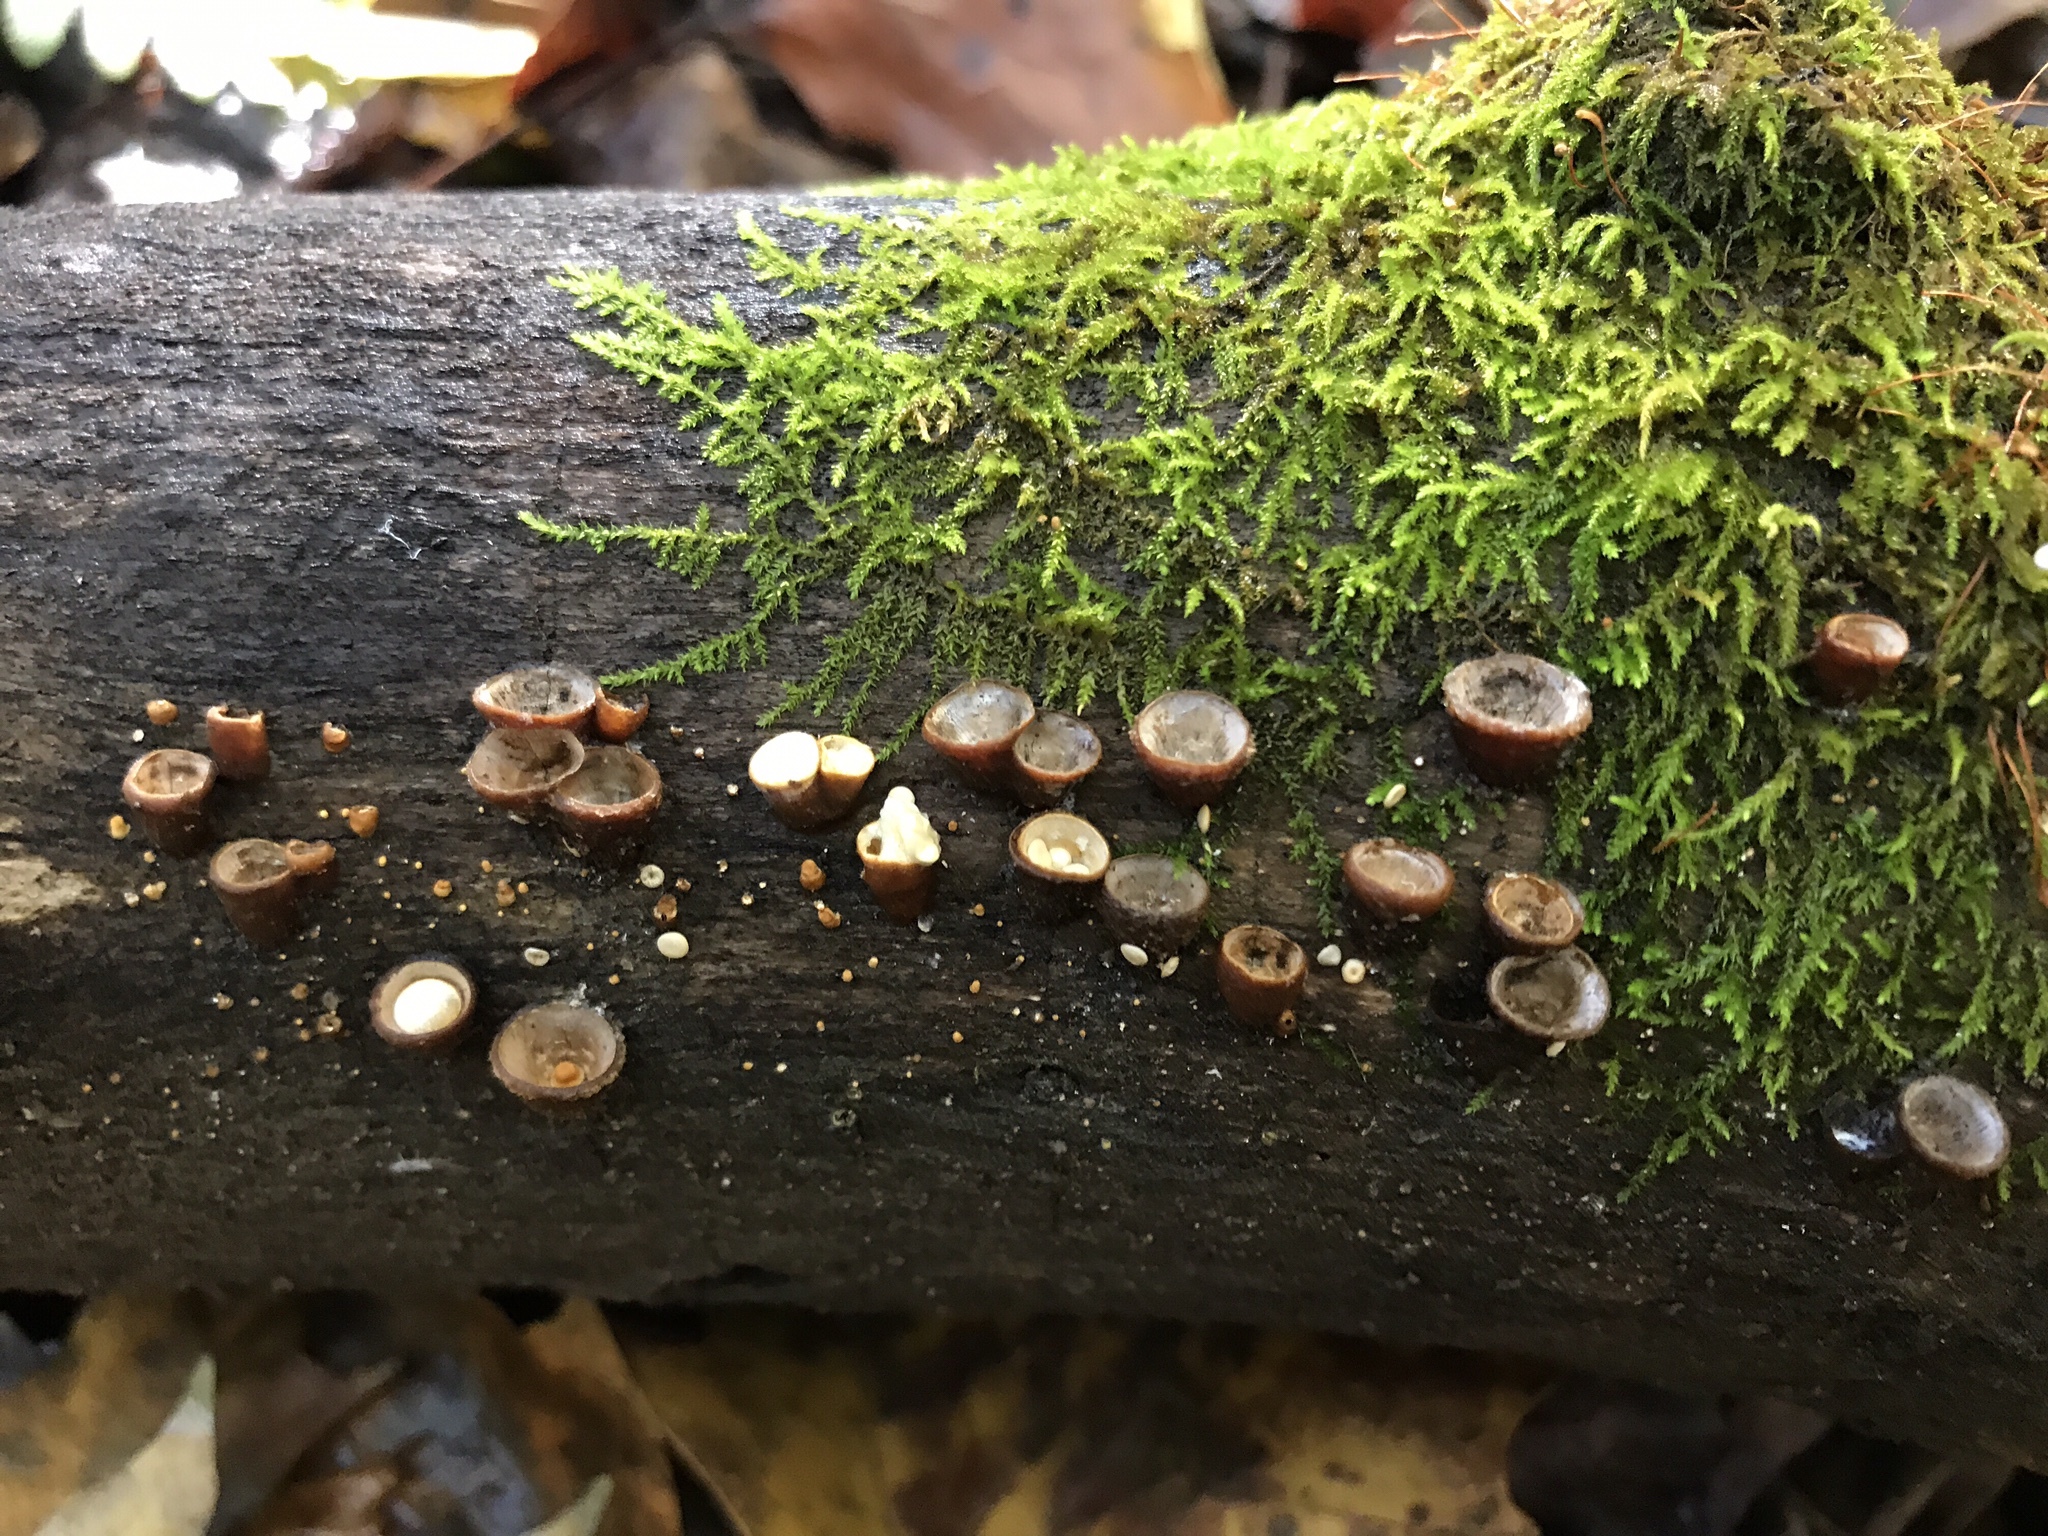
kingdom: Fungi
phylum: Basidiomycota
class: Agaricomycetes
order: Agaricales
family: Nidulariaceae
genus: Crucibulum
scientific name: Crucibulum parvulum
